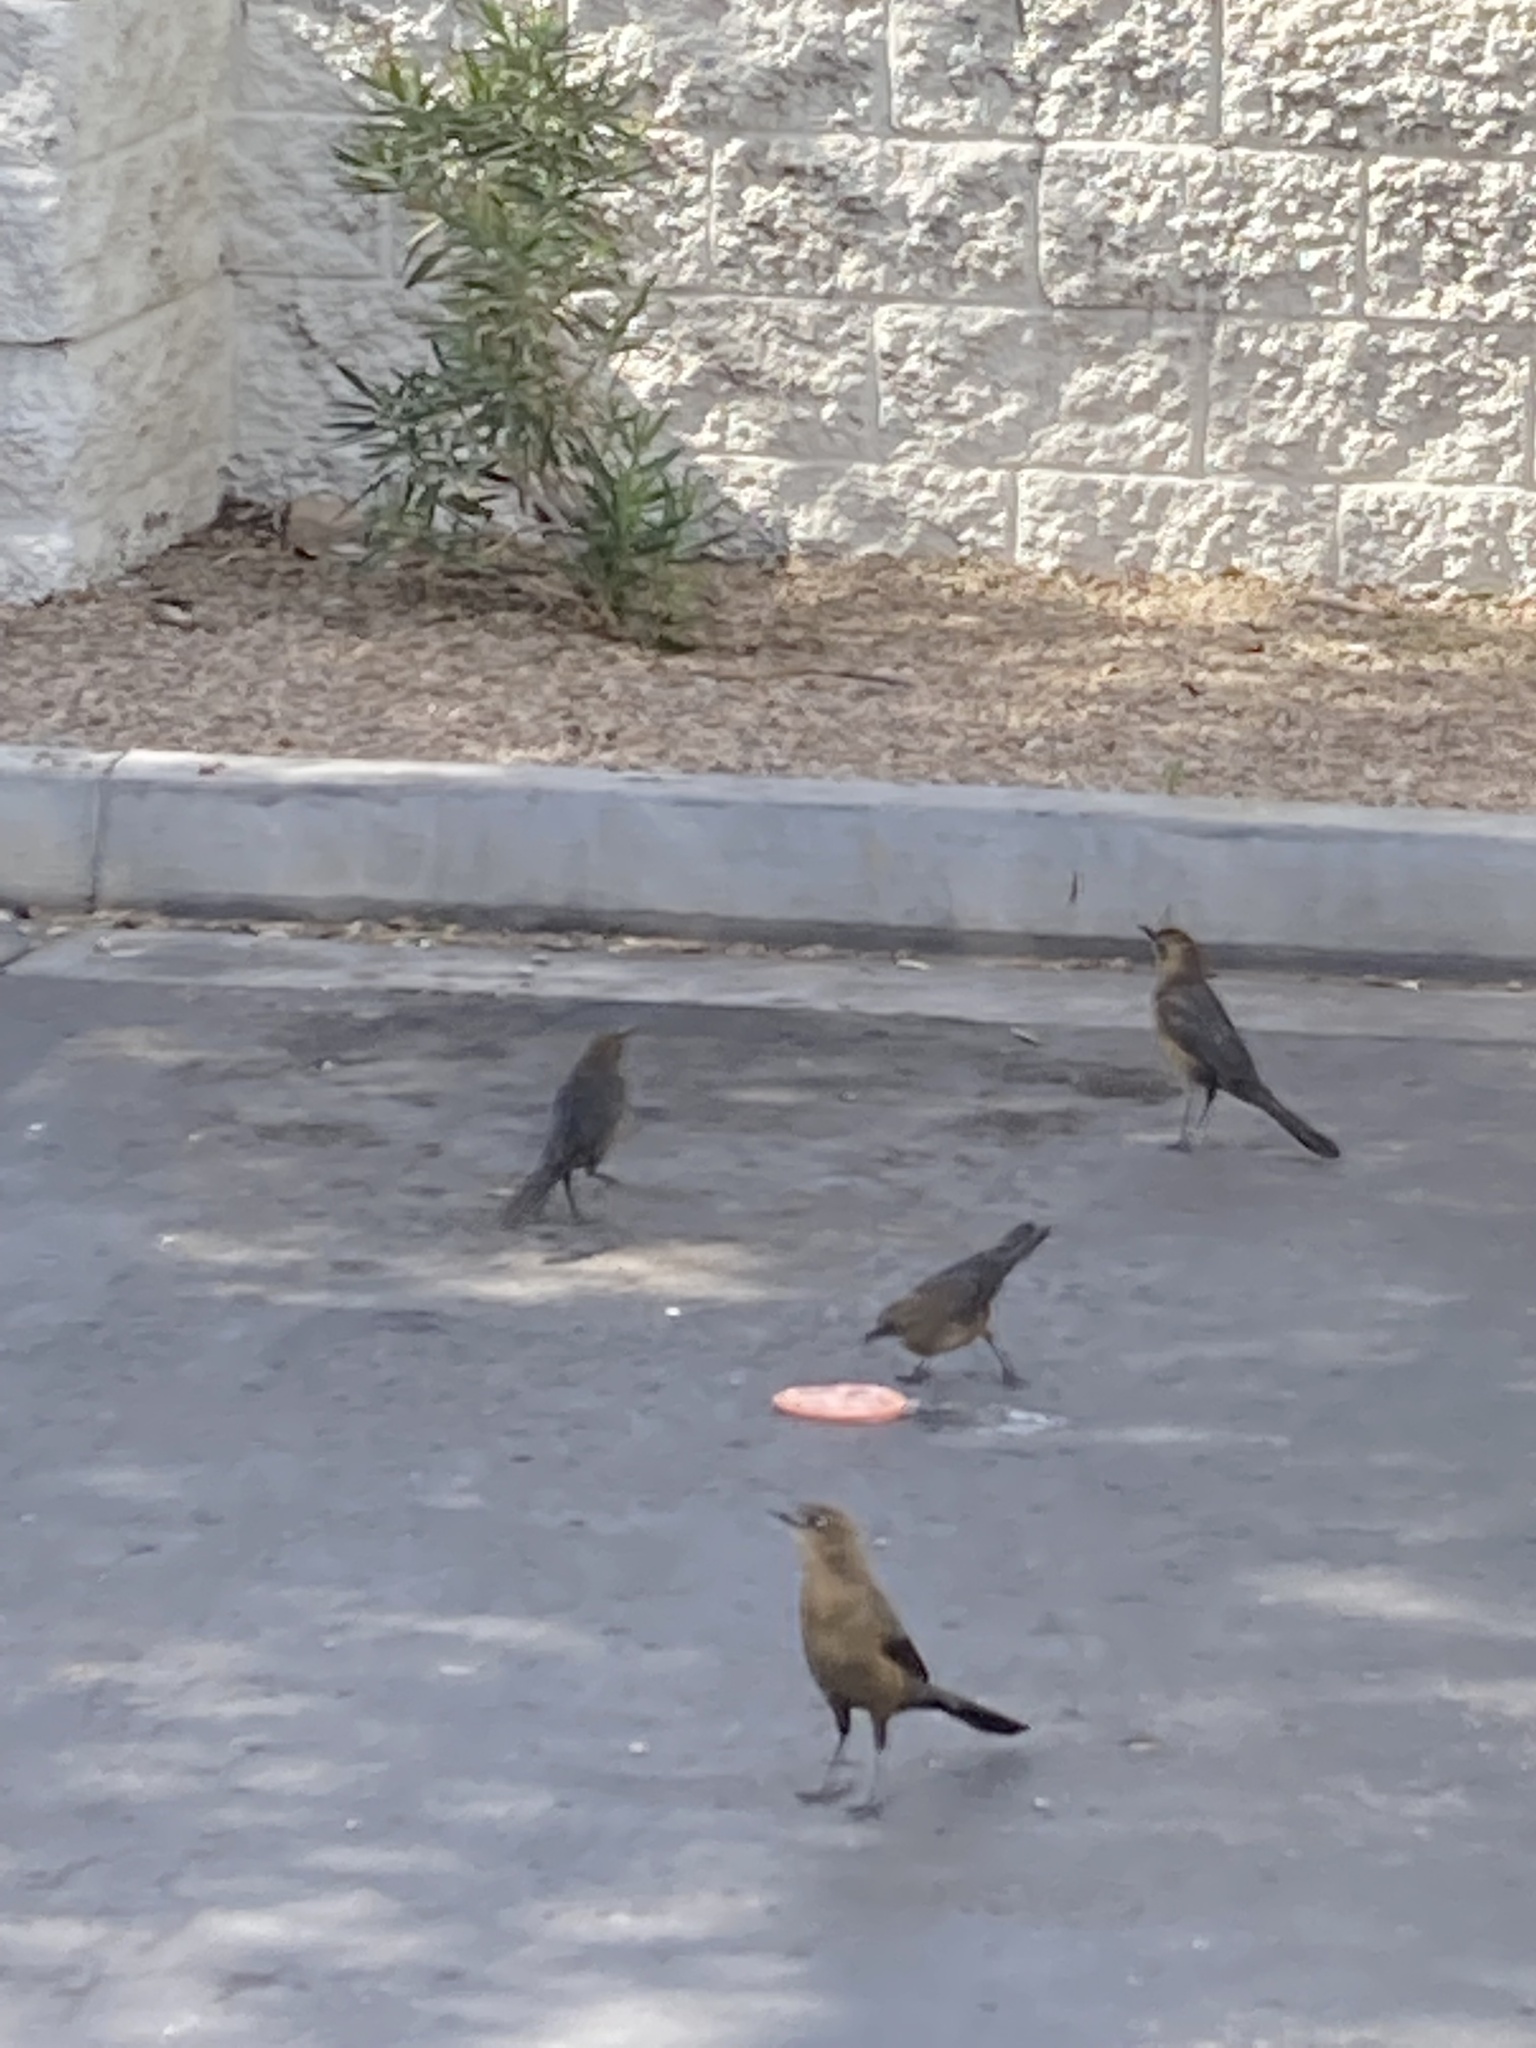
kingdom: Animalia
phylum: Chordata
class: Aves
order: Passeriformes
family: Icteridae
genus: Quiscalus
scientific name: Quiscalus mexicanus
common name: Great-tailed grackle
